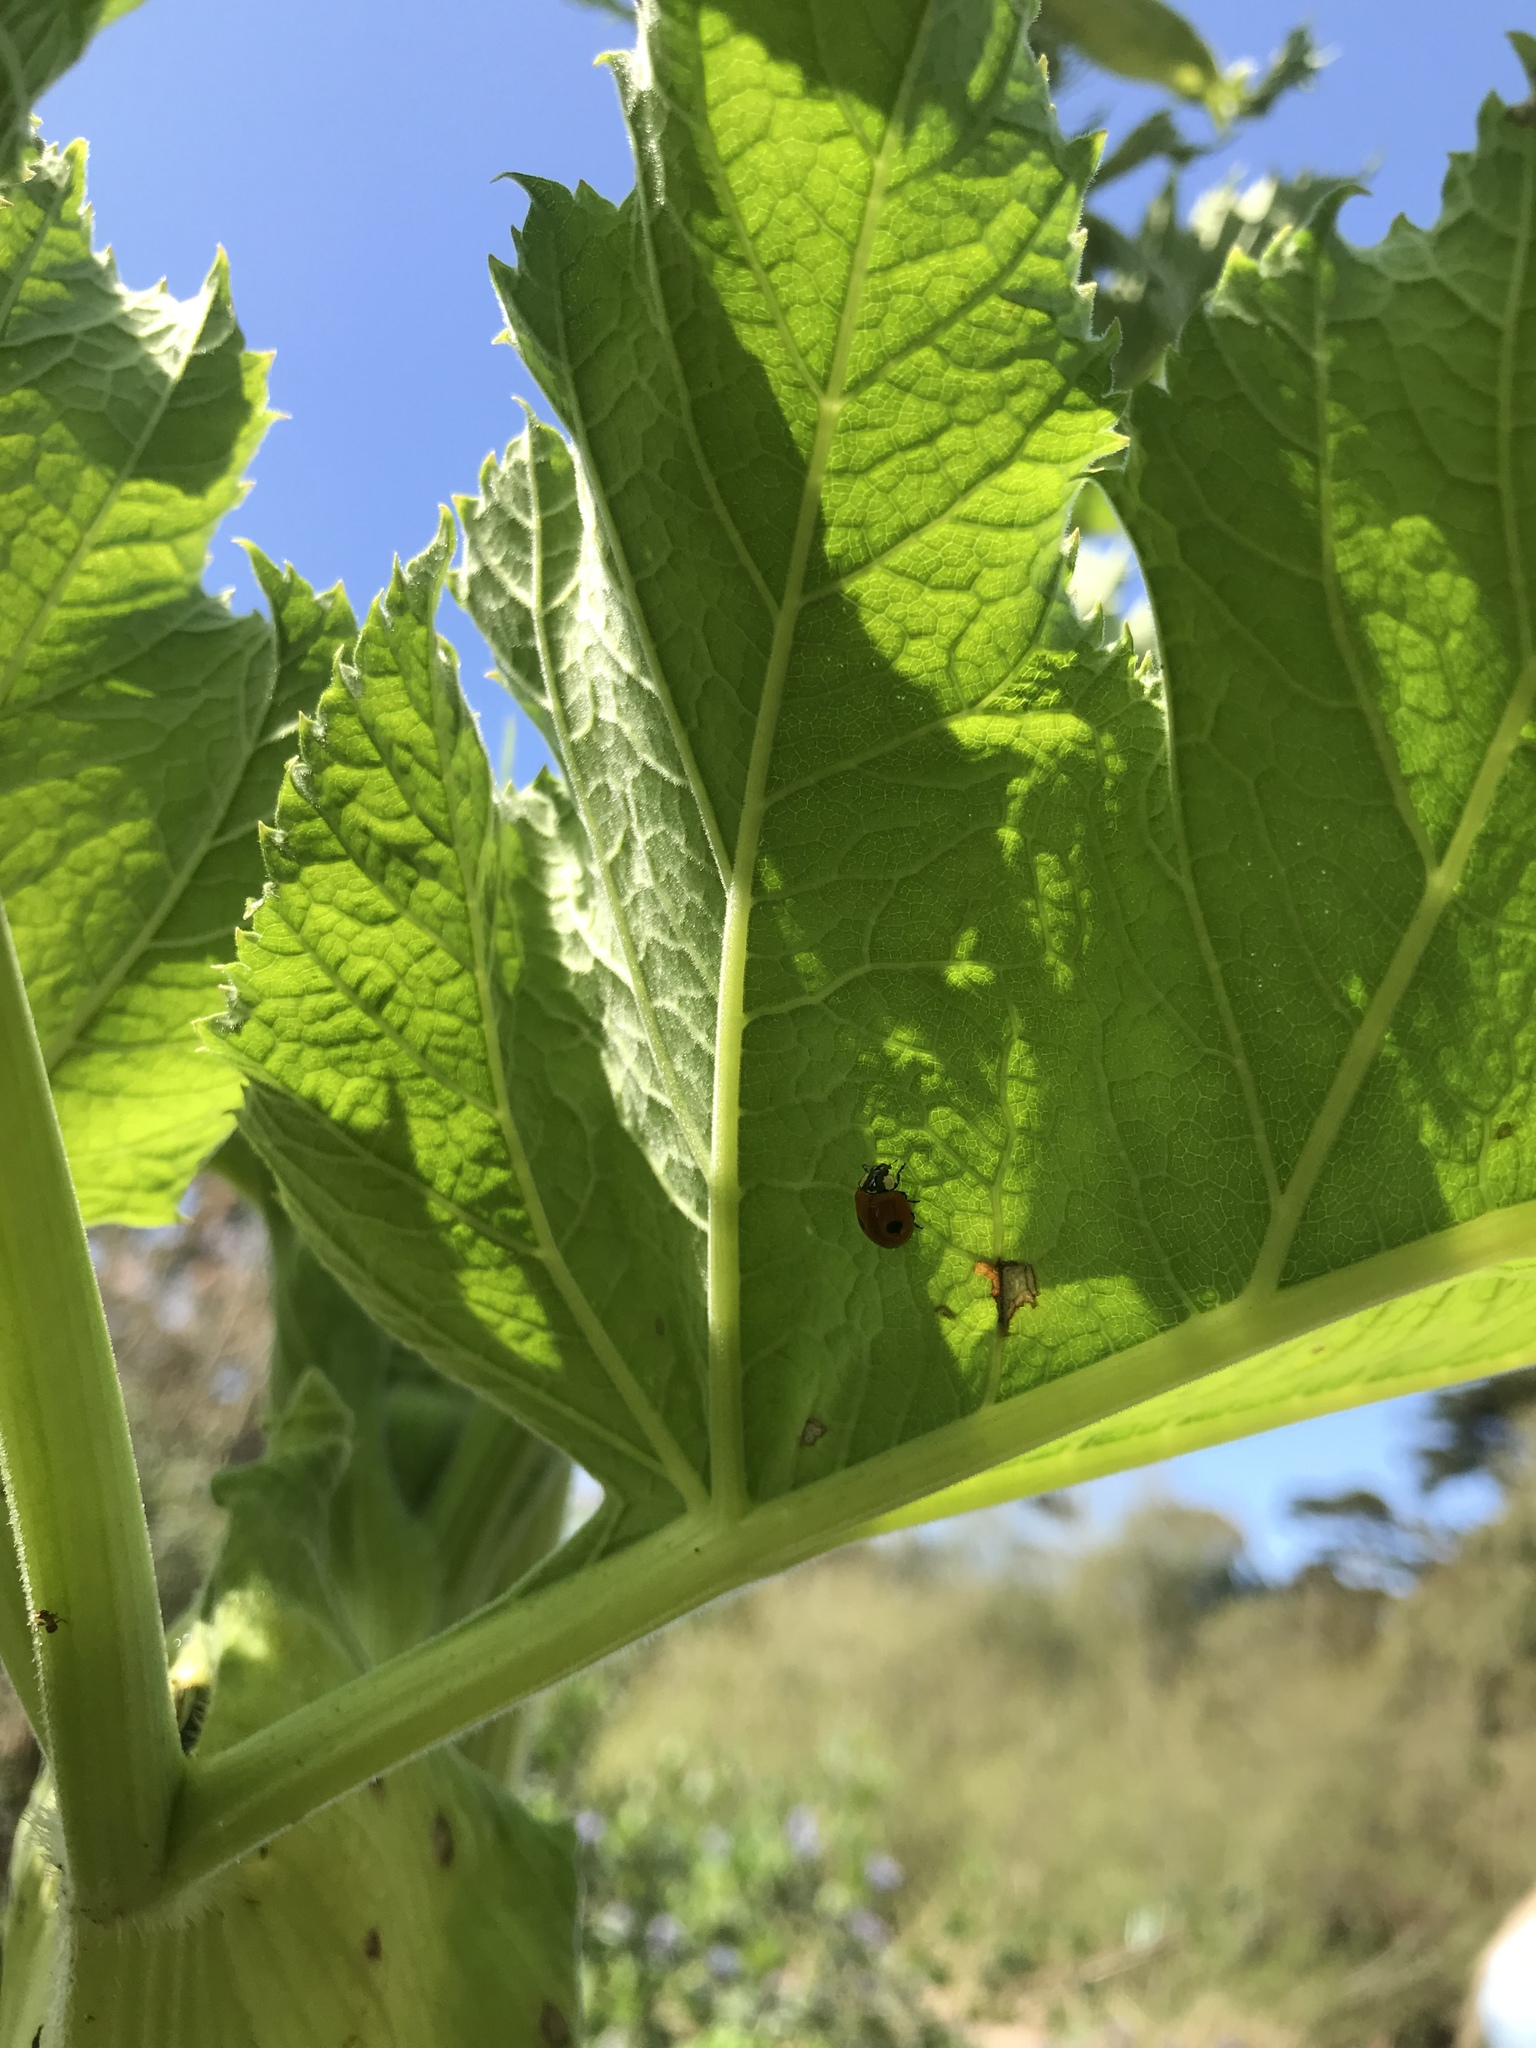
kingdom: Animalia
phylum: Arthropoda
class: Insecta
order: Coleoptera
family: Coccinellidae
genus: Adalia
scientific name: Adalia bipunctata
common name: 2-spot ladybird
